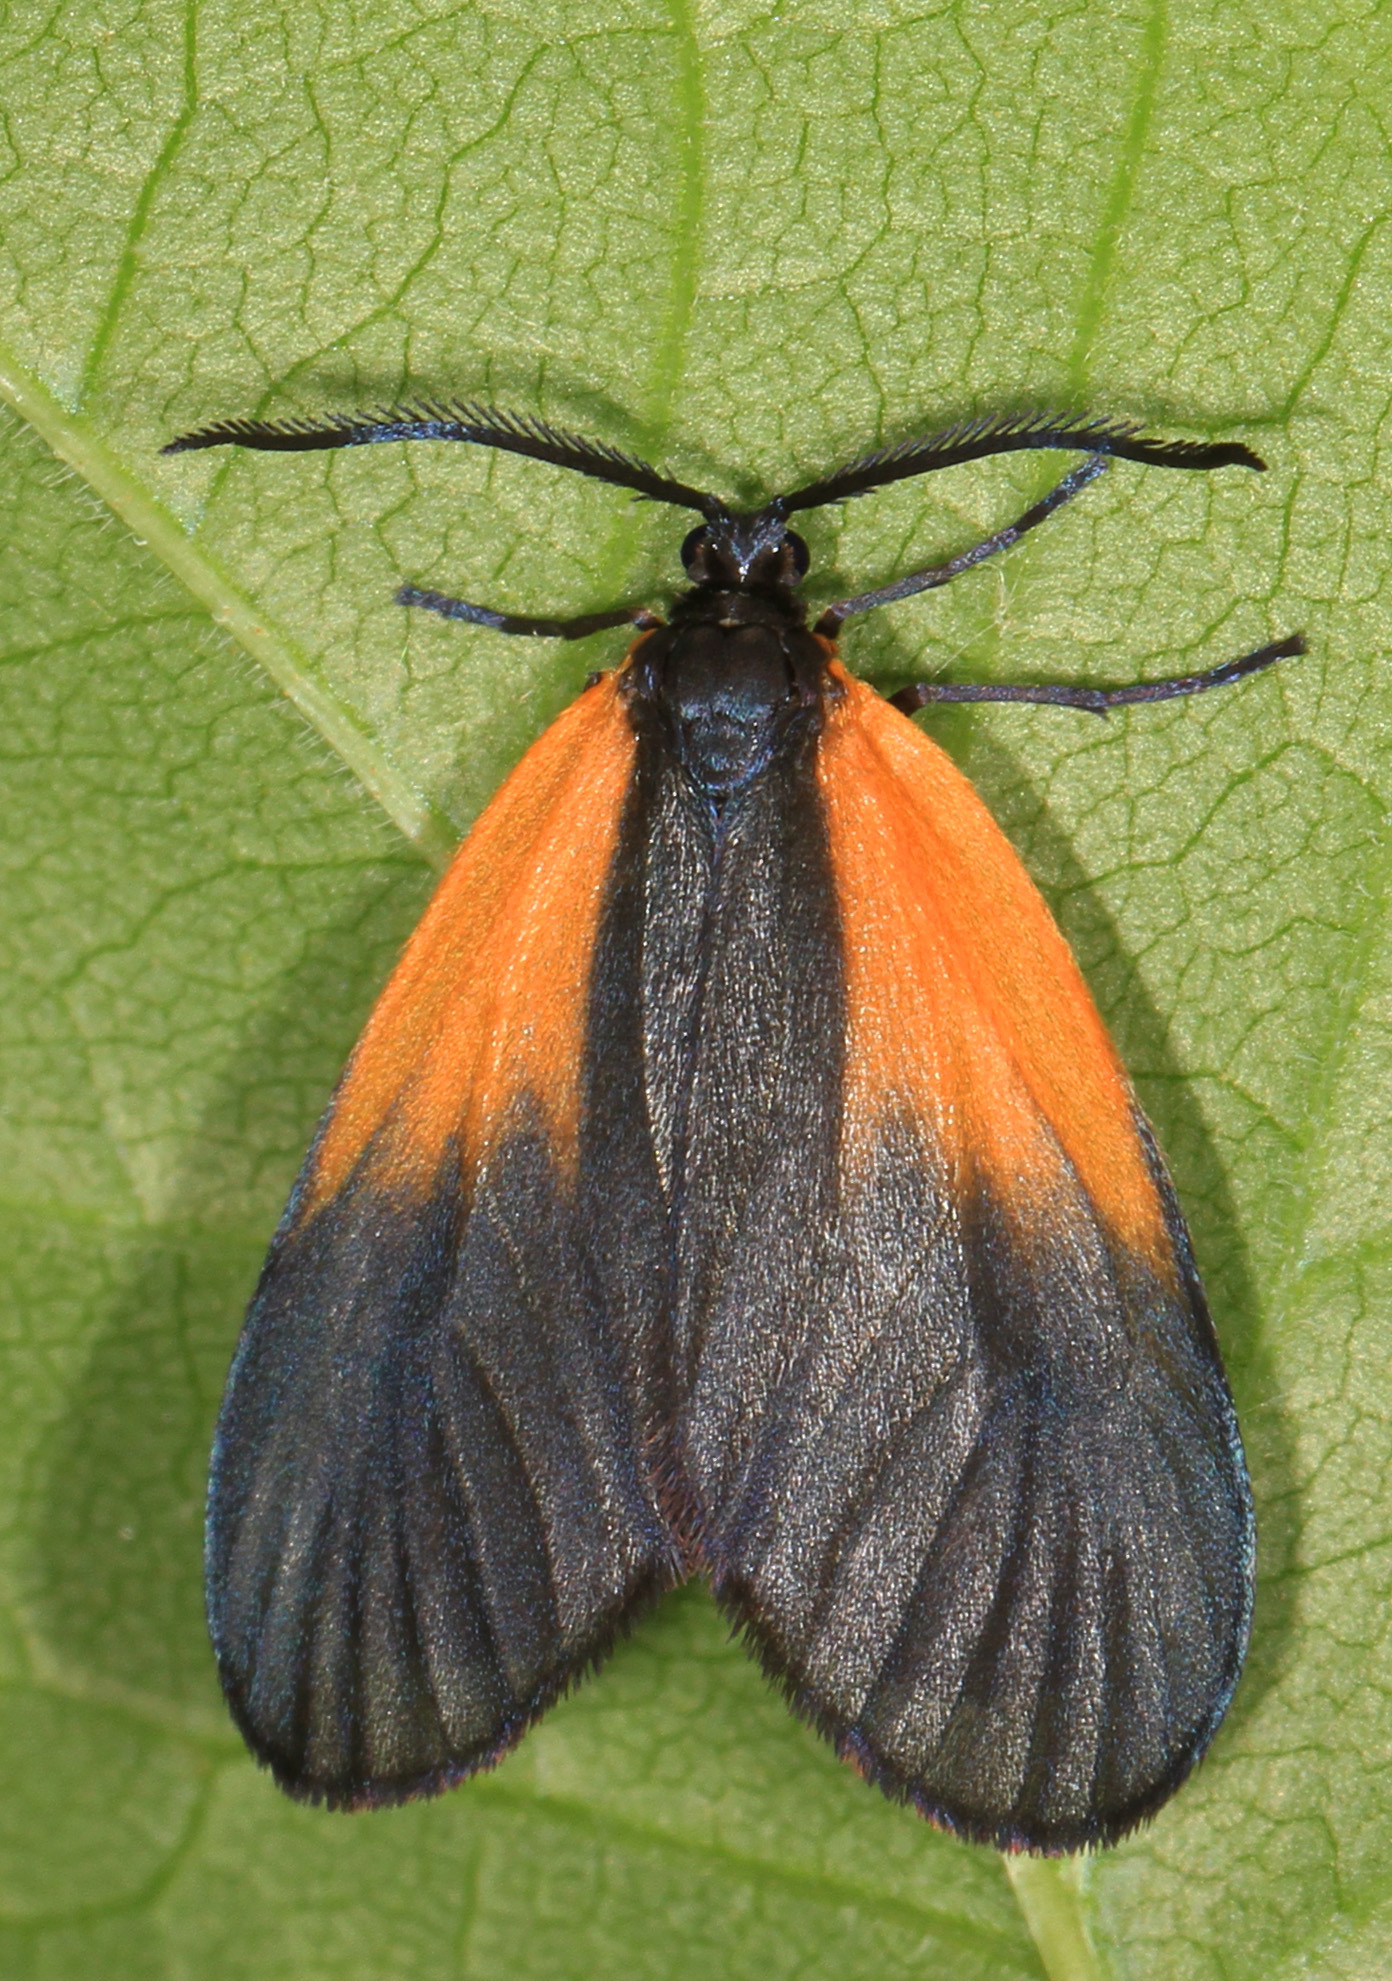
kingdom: Animalia
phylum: Arthropoda
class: Insecta
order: Lepidoptera
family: Zygaenidae
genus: Malthaca
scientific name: Malthaca dimidiata
